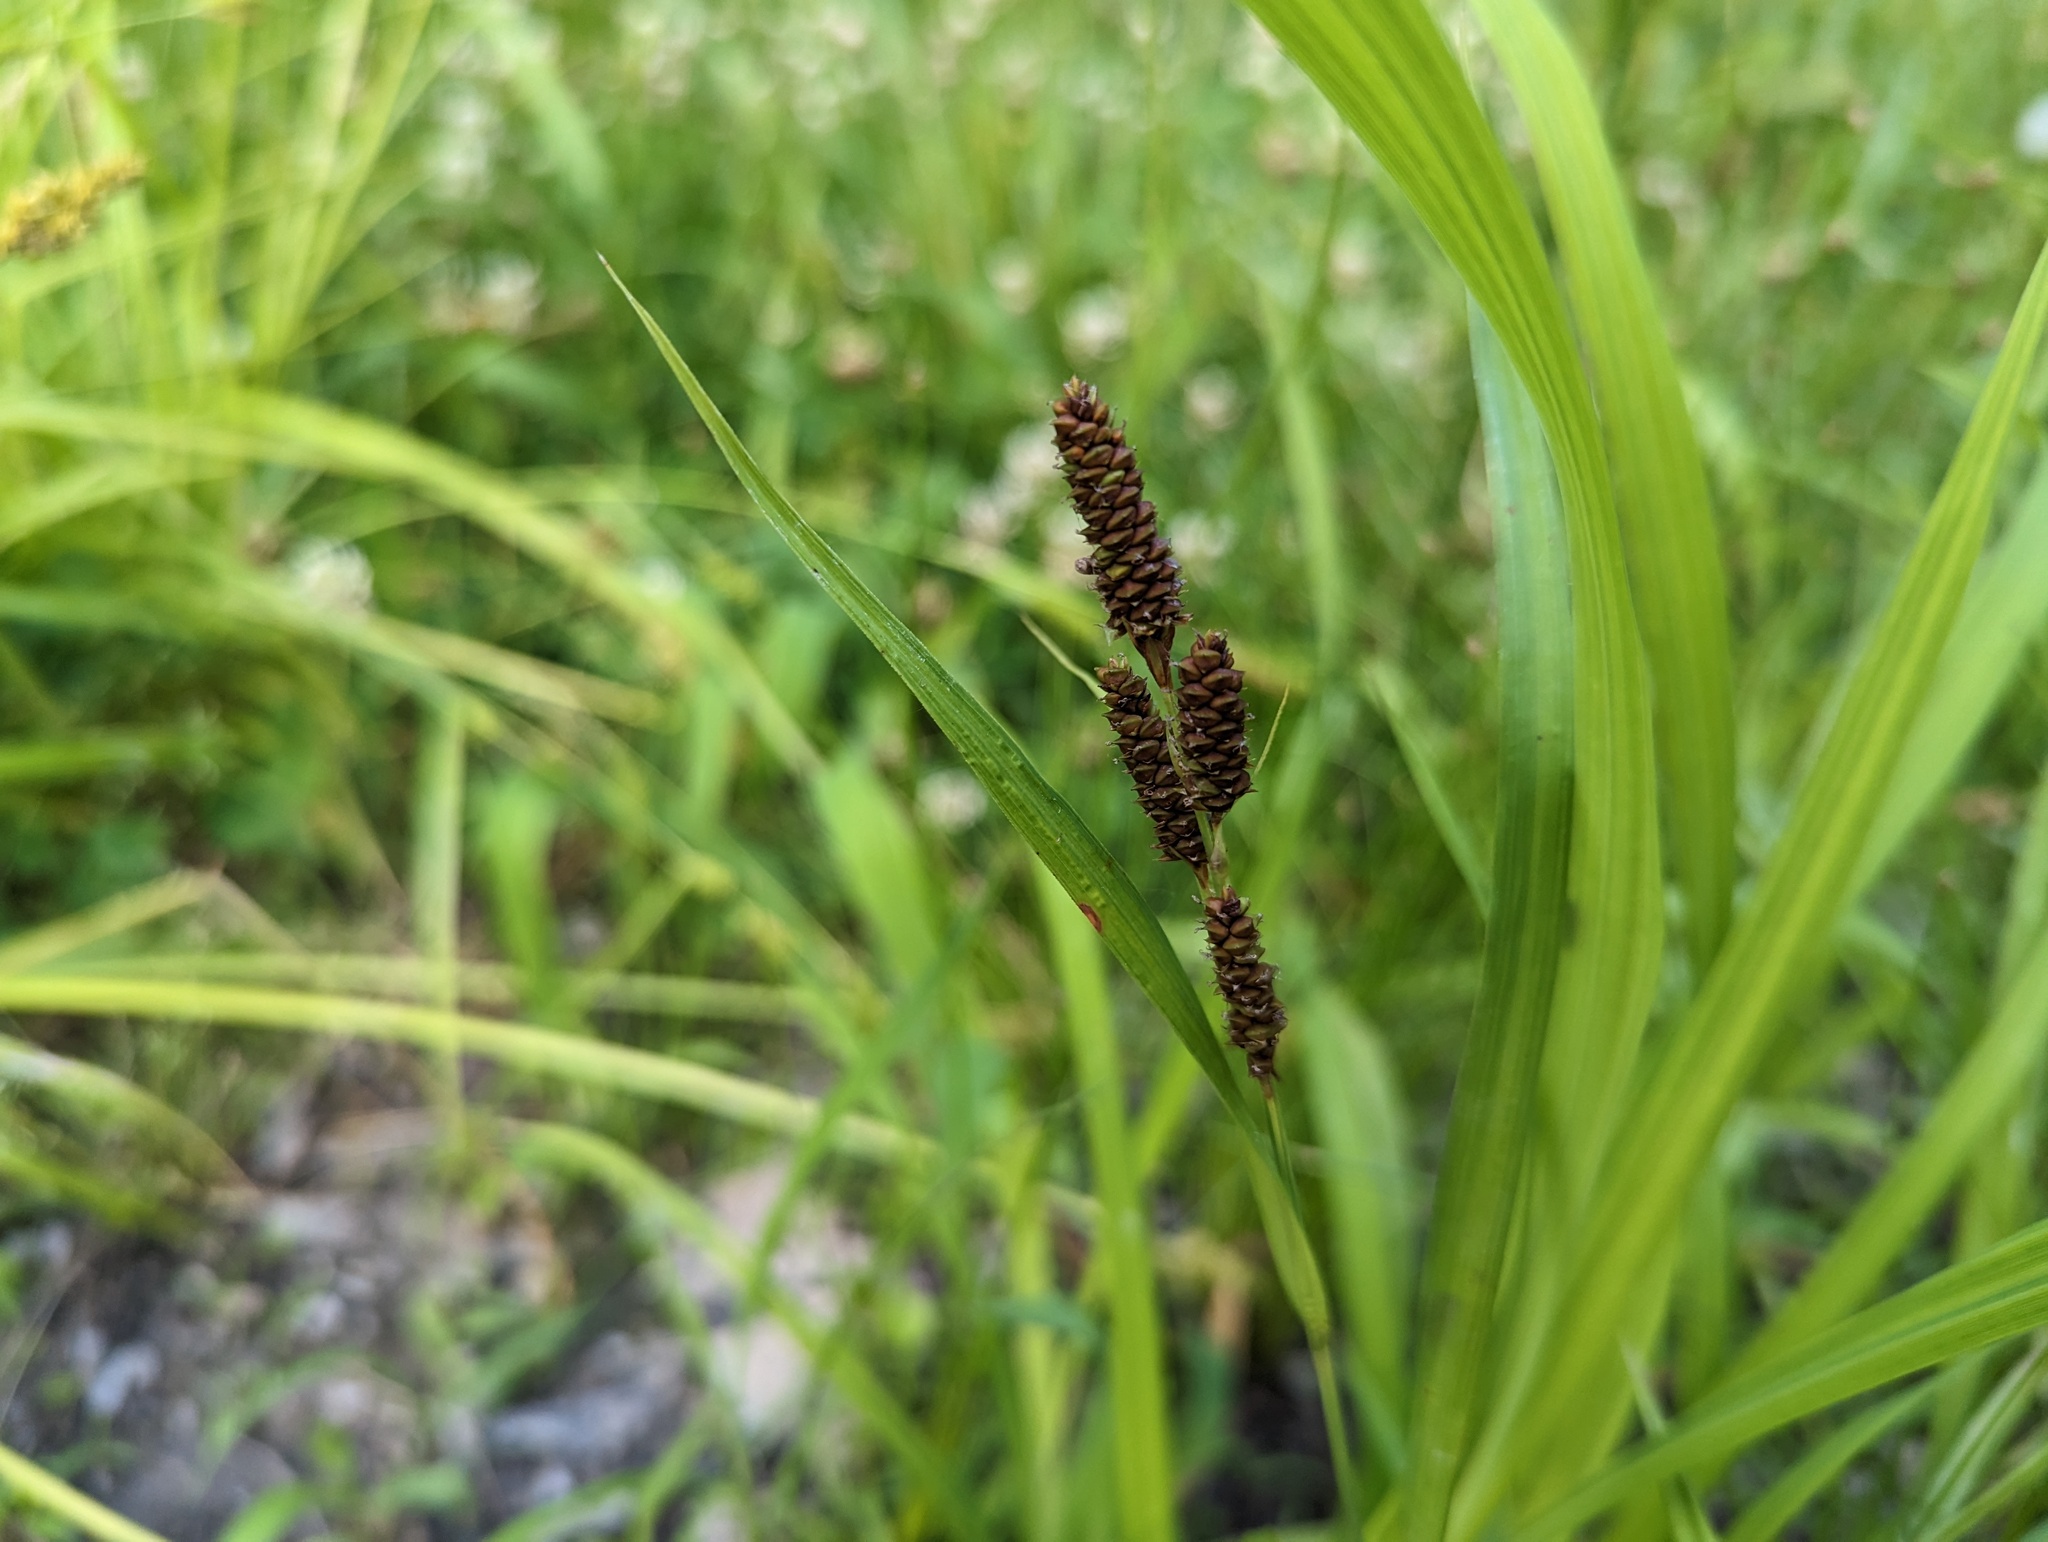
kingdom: Plantae
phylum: Tracheophyta
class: Liliopsida
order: Poales
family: Cyperaceae
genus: Carex
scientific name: Carex shortiana
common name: Short's sedge
